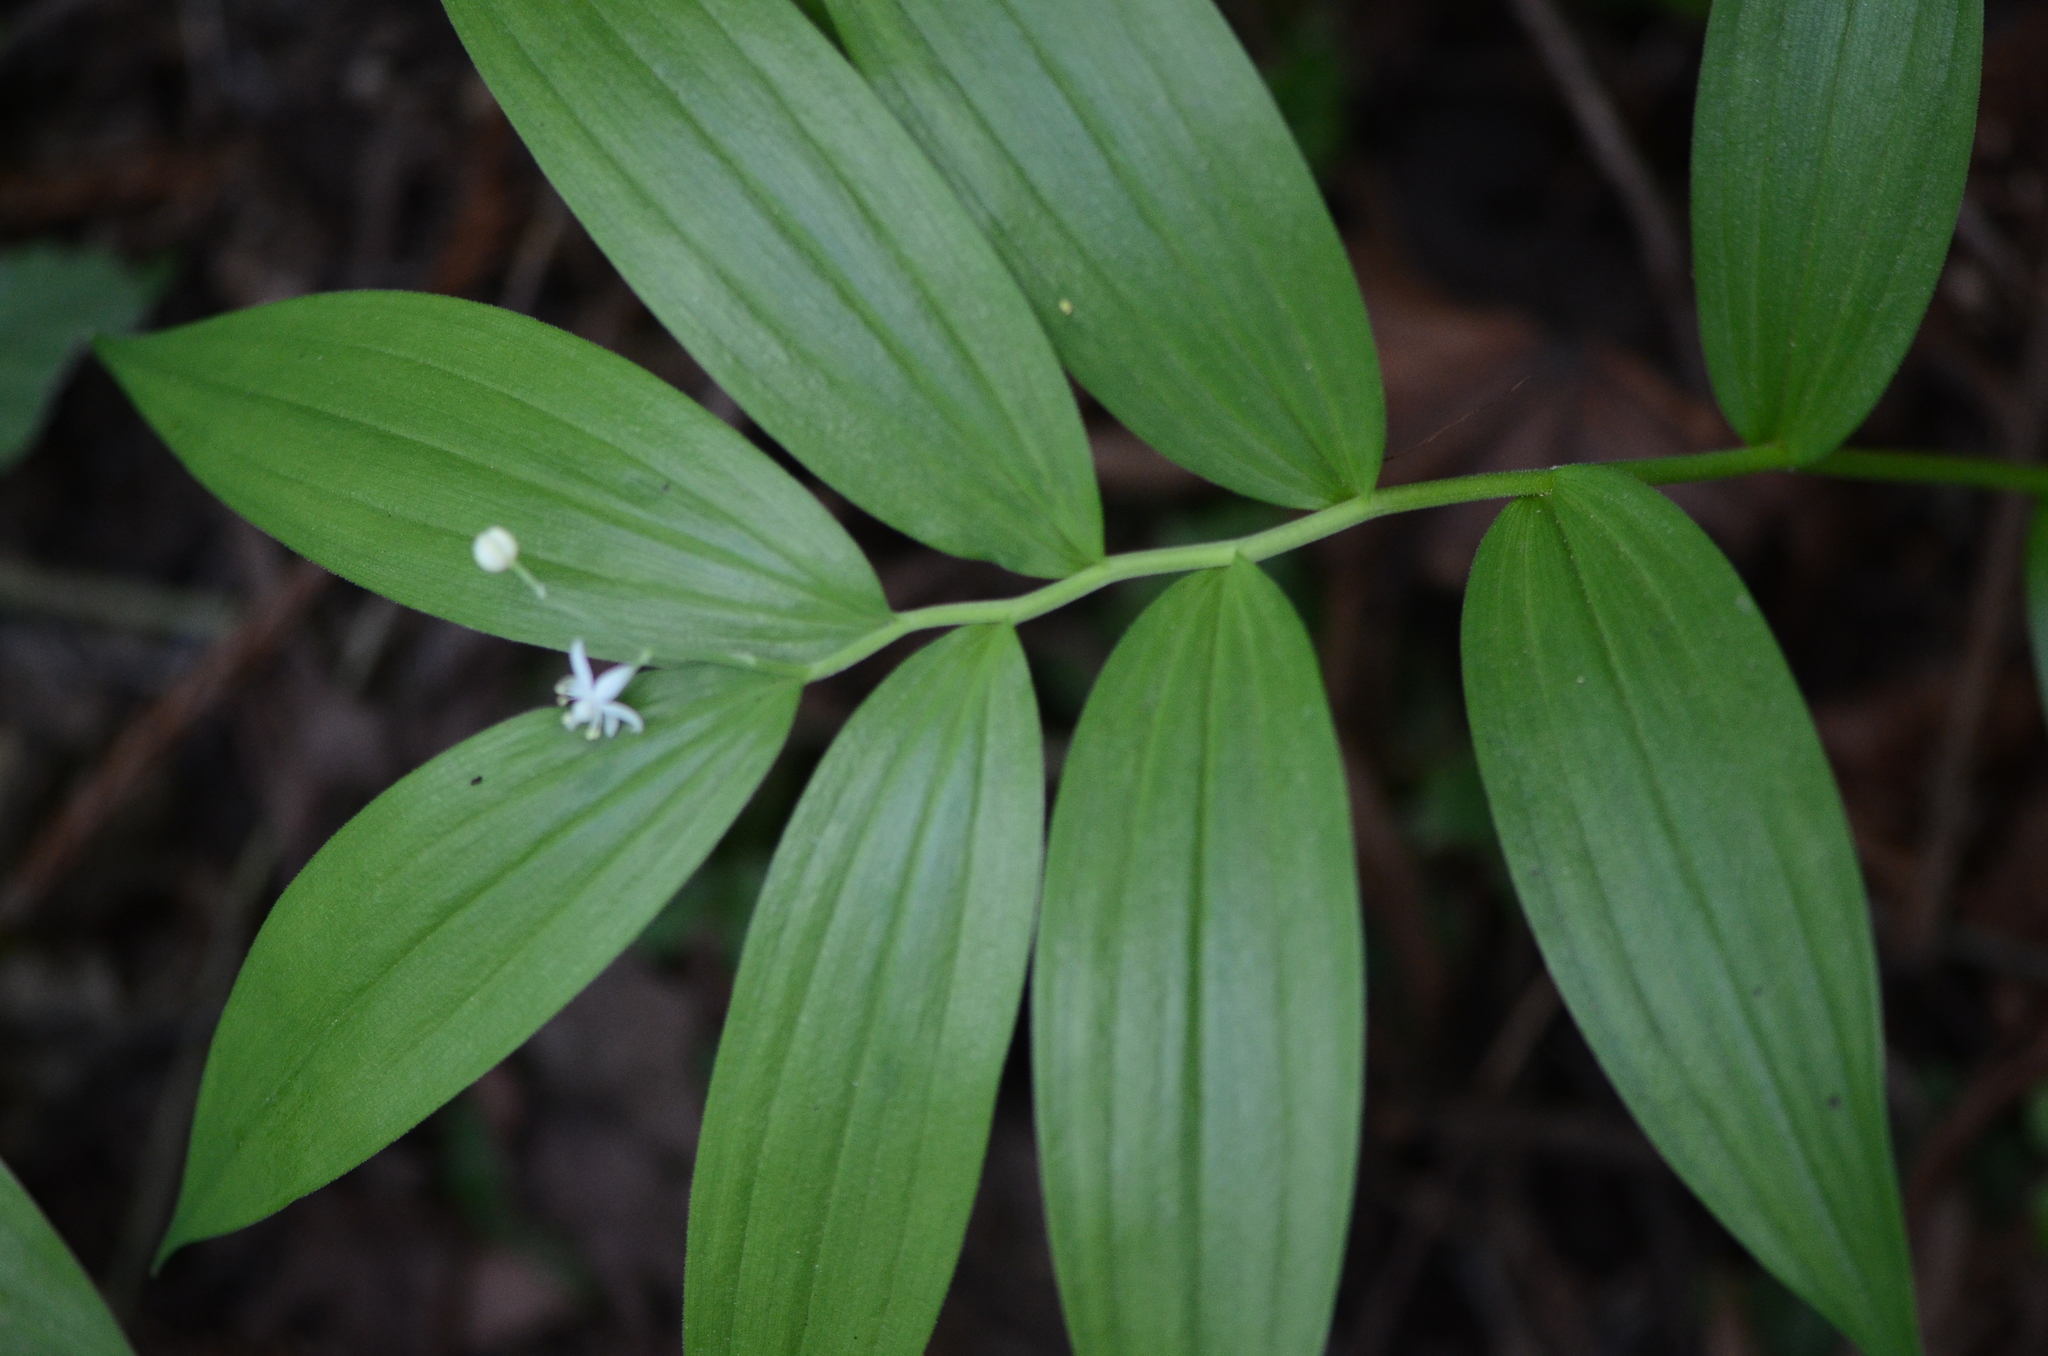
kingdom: Plantae
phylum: Tracheophyta
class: Liliopsida
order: Asparagales
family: Asparagaceae
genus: Maianthemum
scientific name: Maianthemum stellatum
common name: Little false solomon's seal
